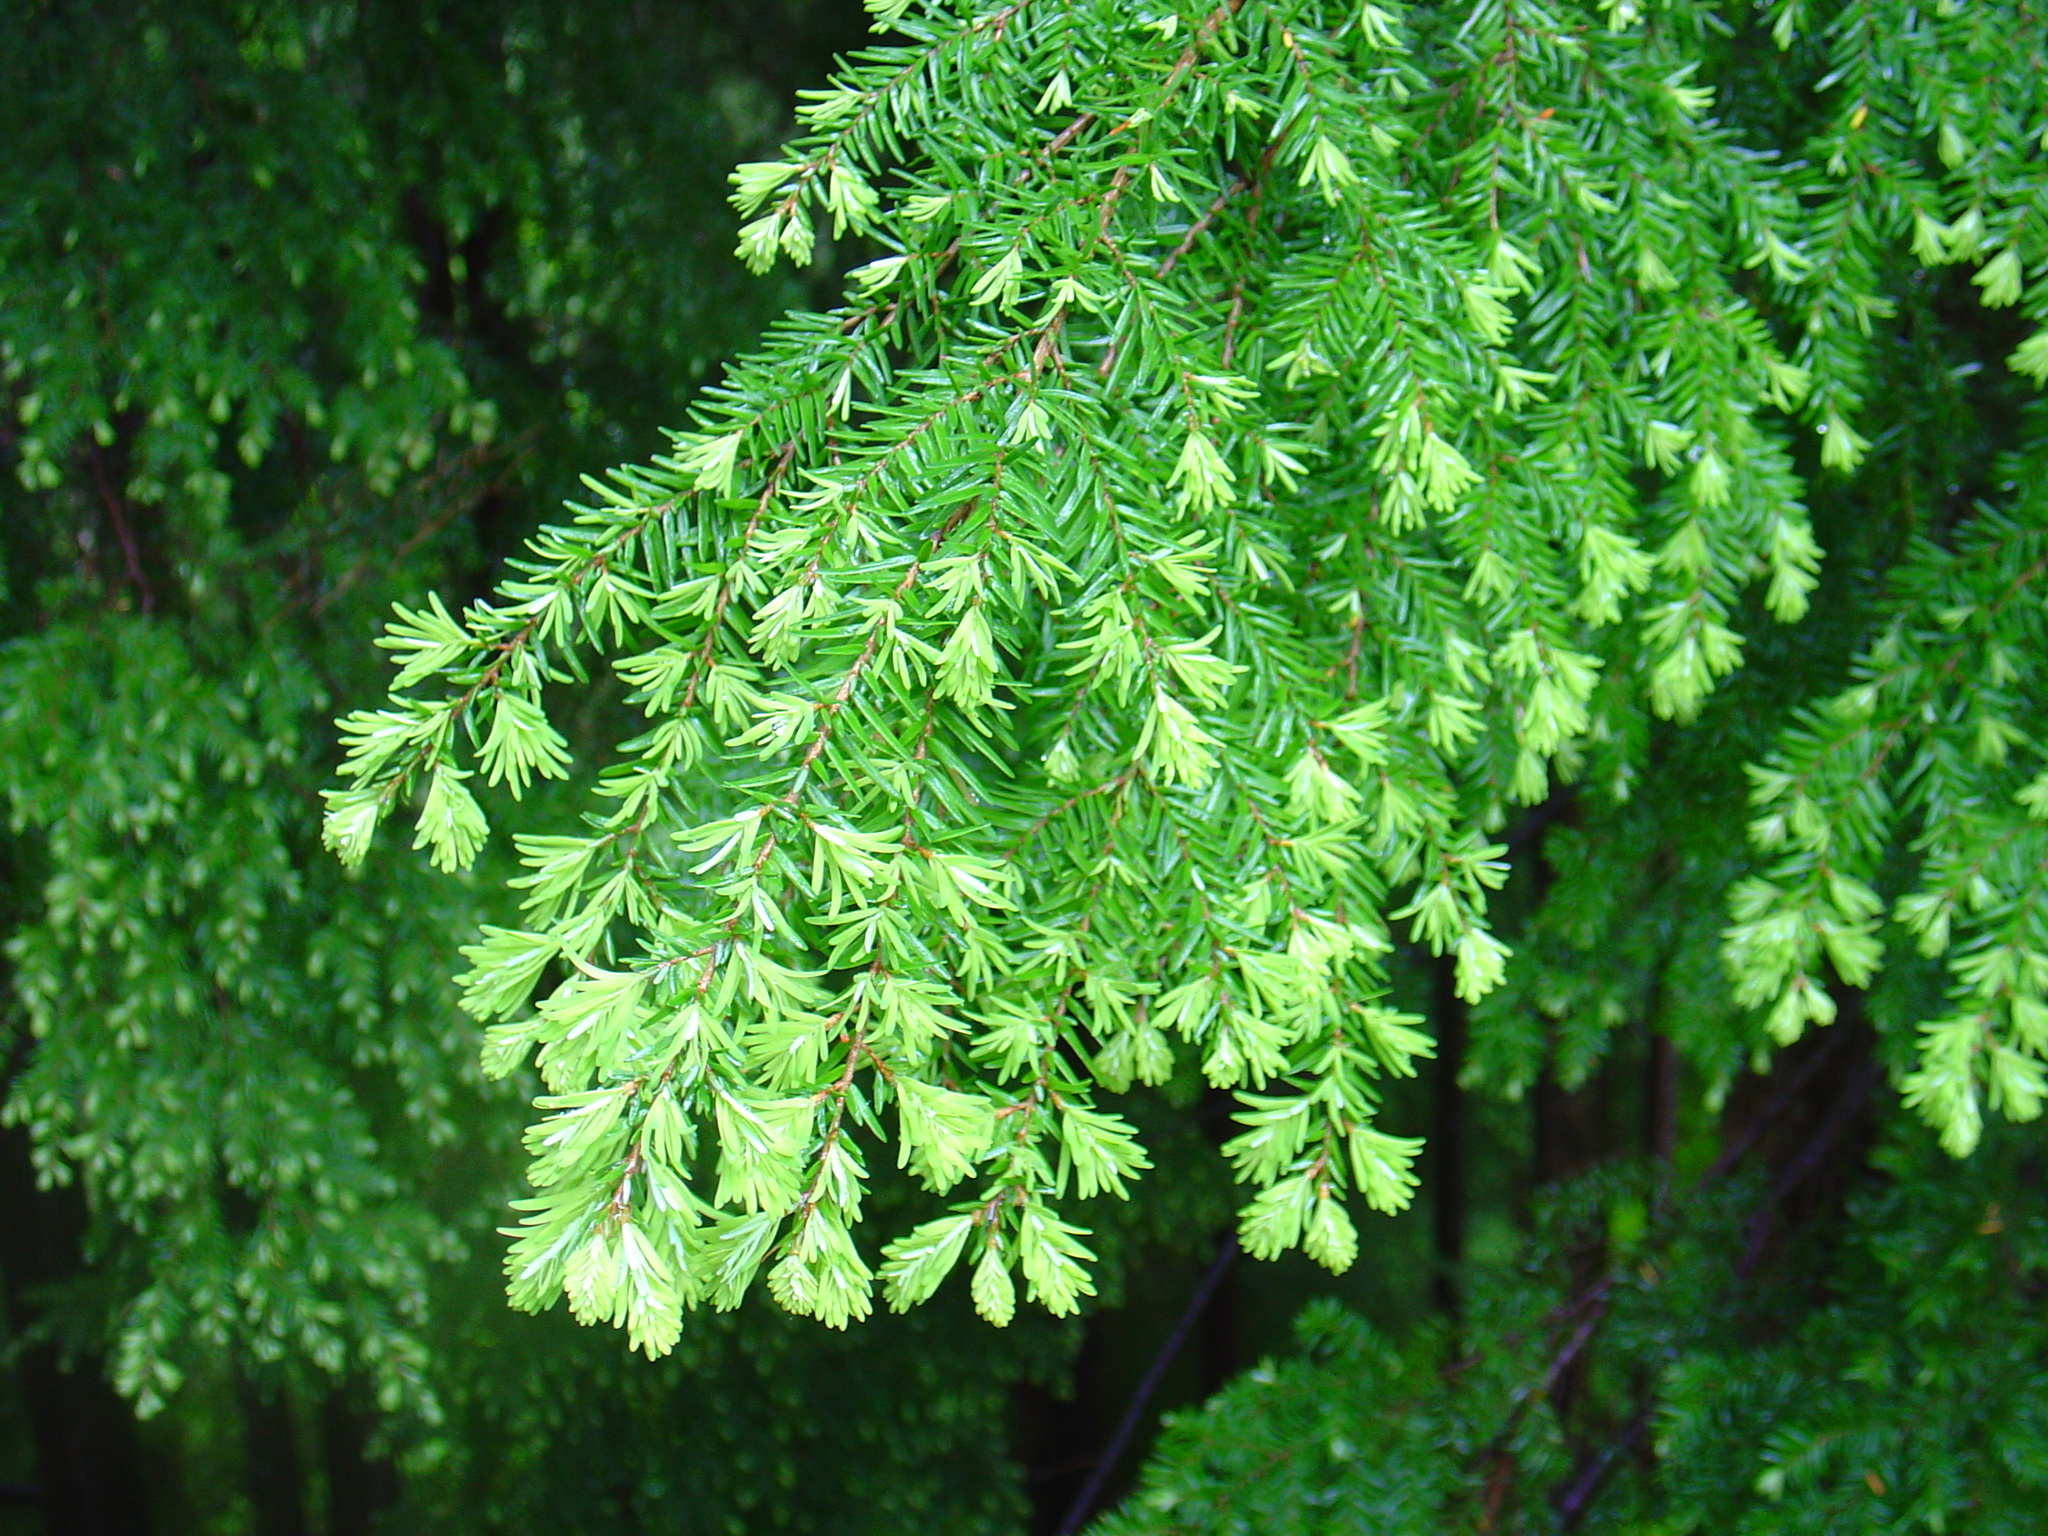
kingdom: Plantae
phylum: Tracheophyta
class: Pinopsida
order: Pinales
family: Pinaceae
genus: Tsuga
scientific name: Tsuga heterophylla
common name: Western hemlock
